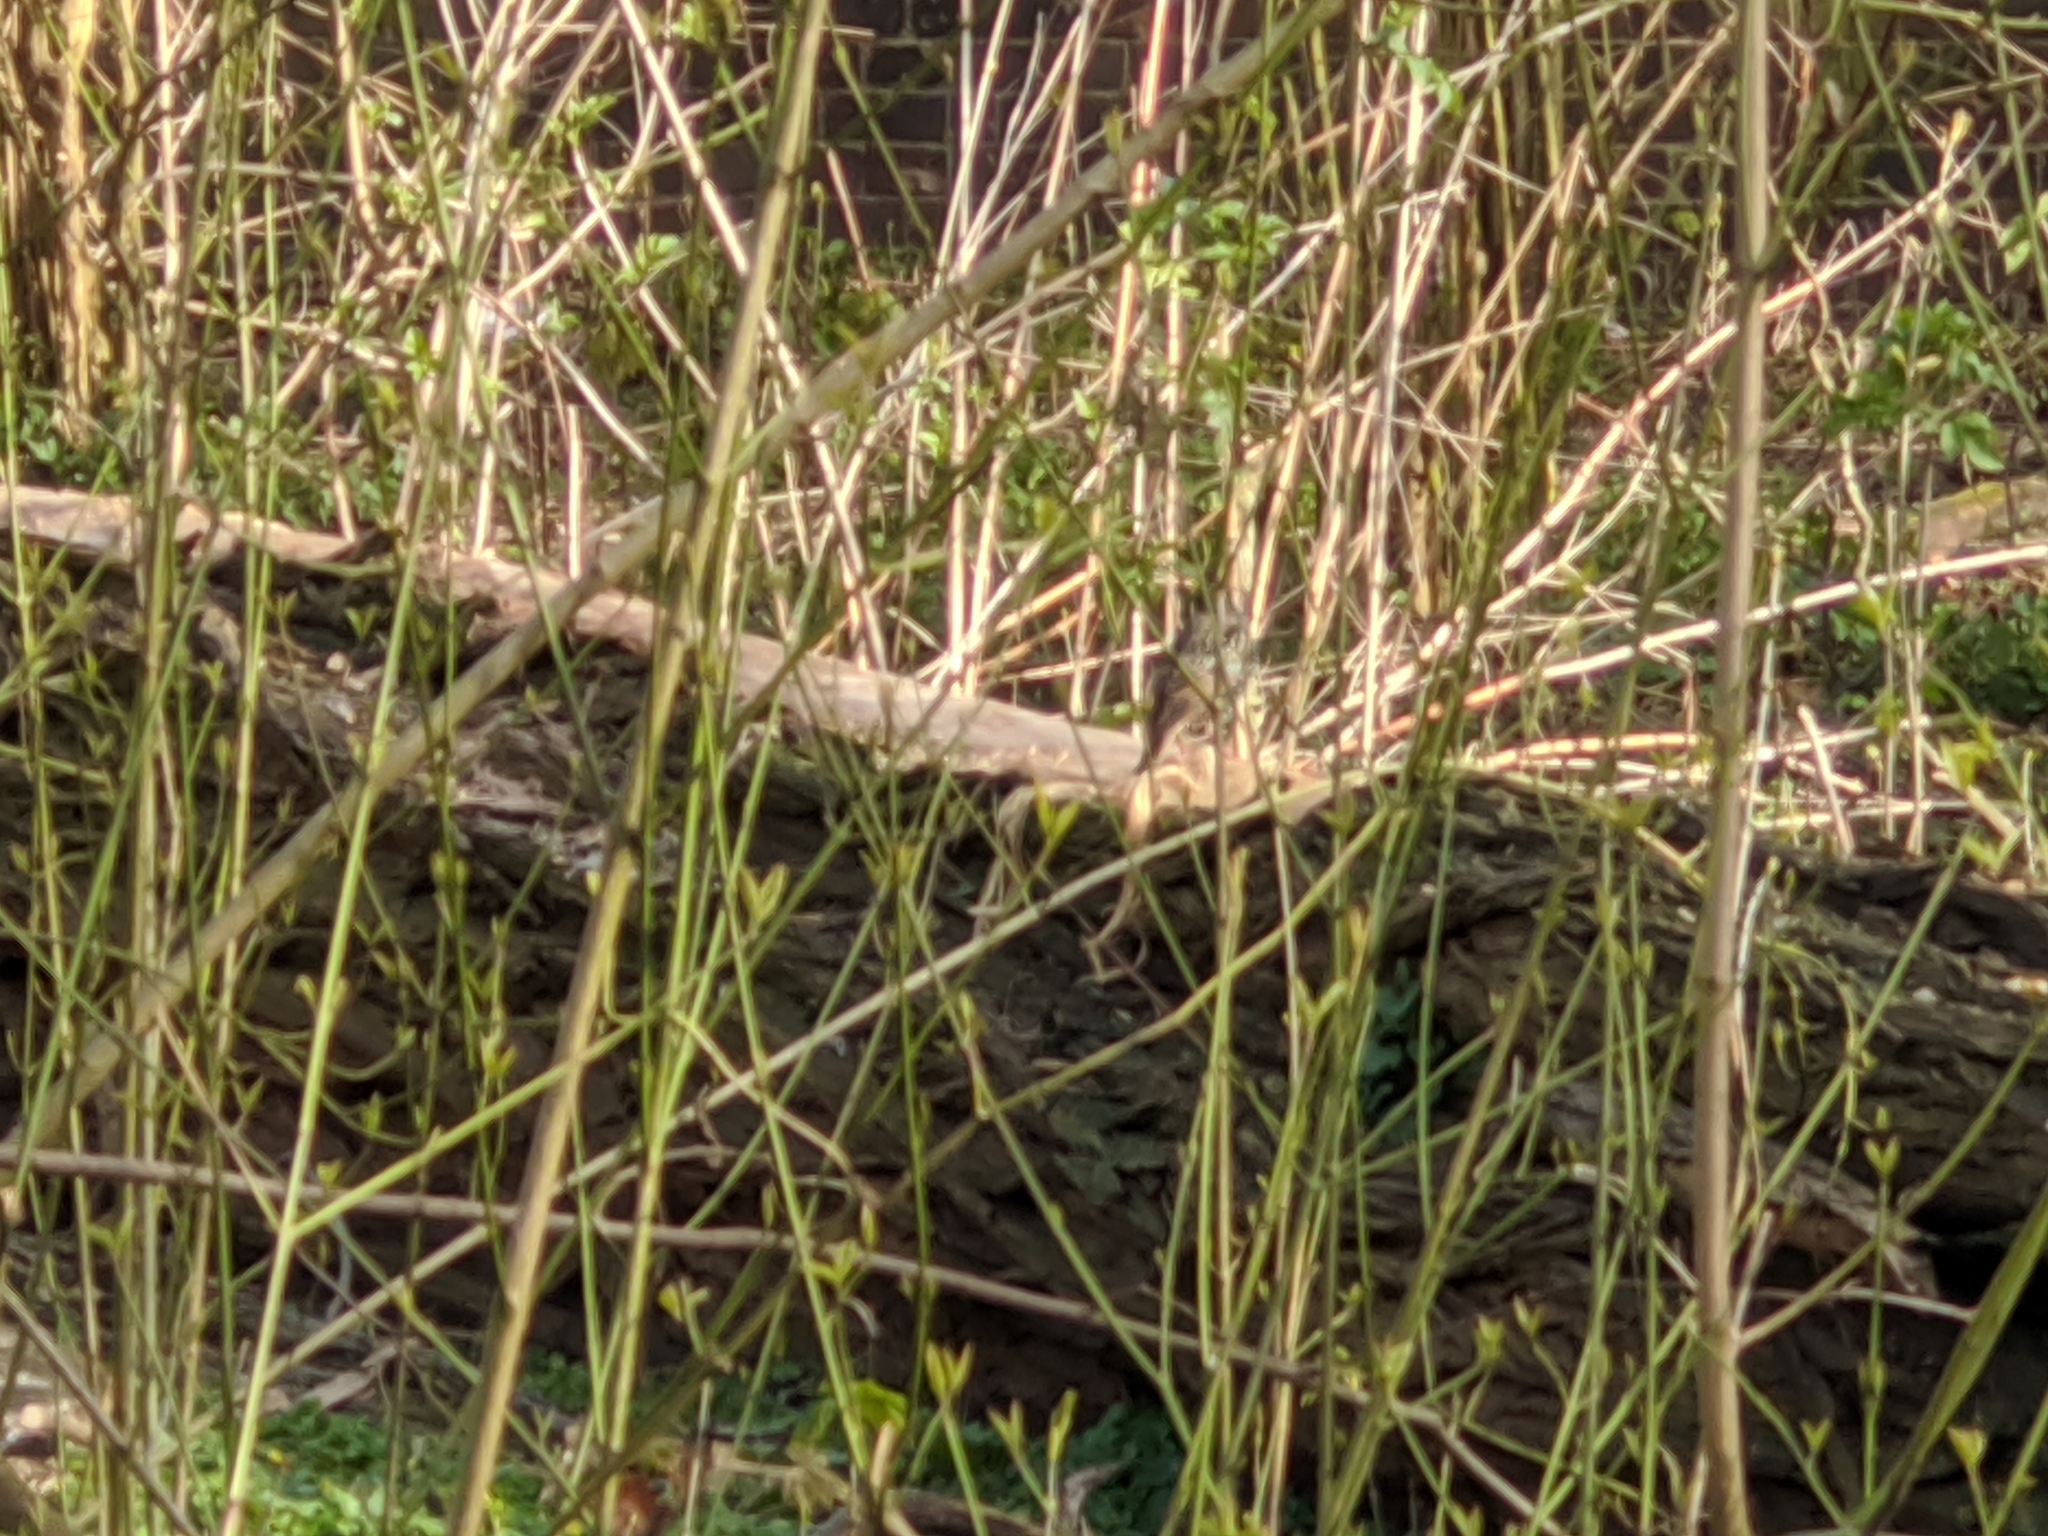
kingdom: Animalia
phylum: Chordata
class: Aves
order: Passeriformes
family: Sturnidae
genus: Sturnus
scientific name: Sturnus vulgaris
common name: Common starling
